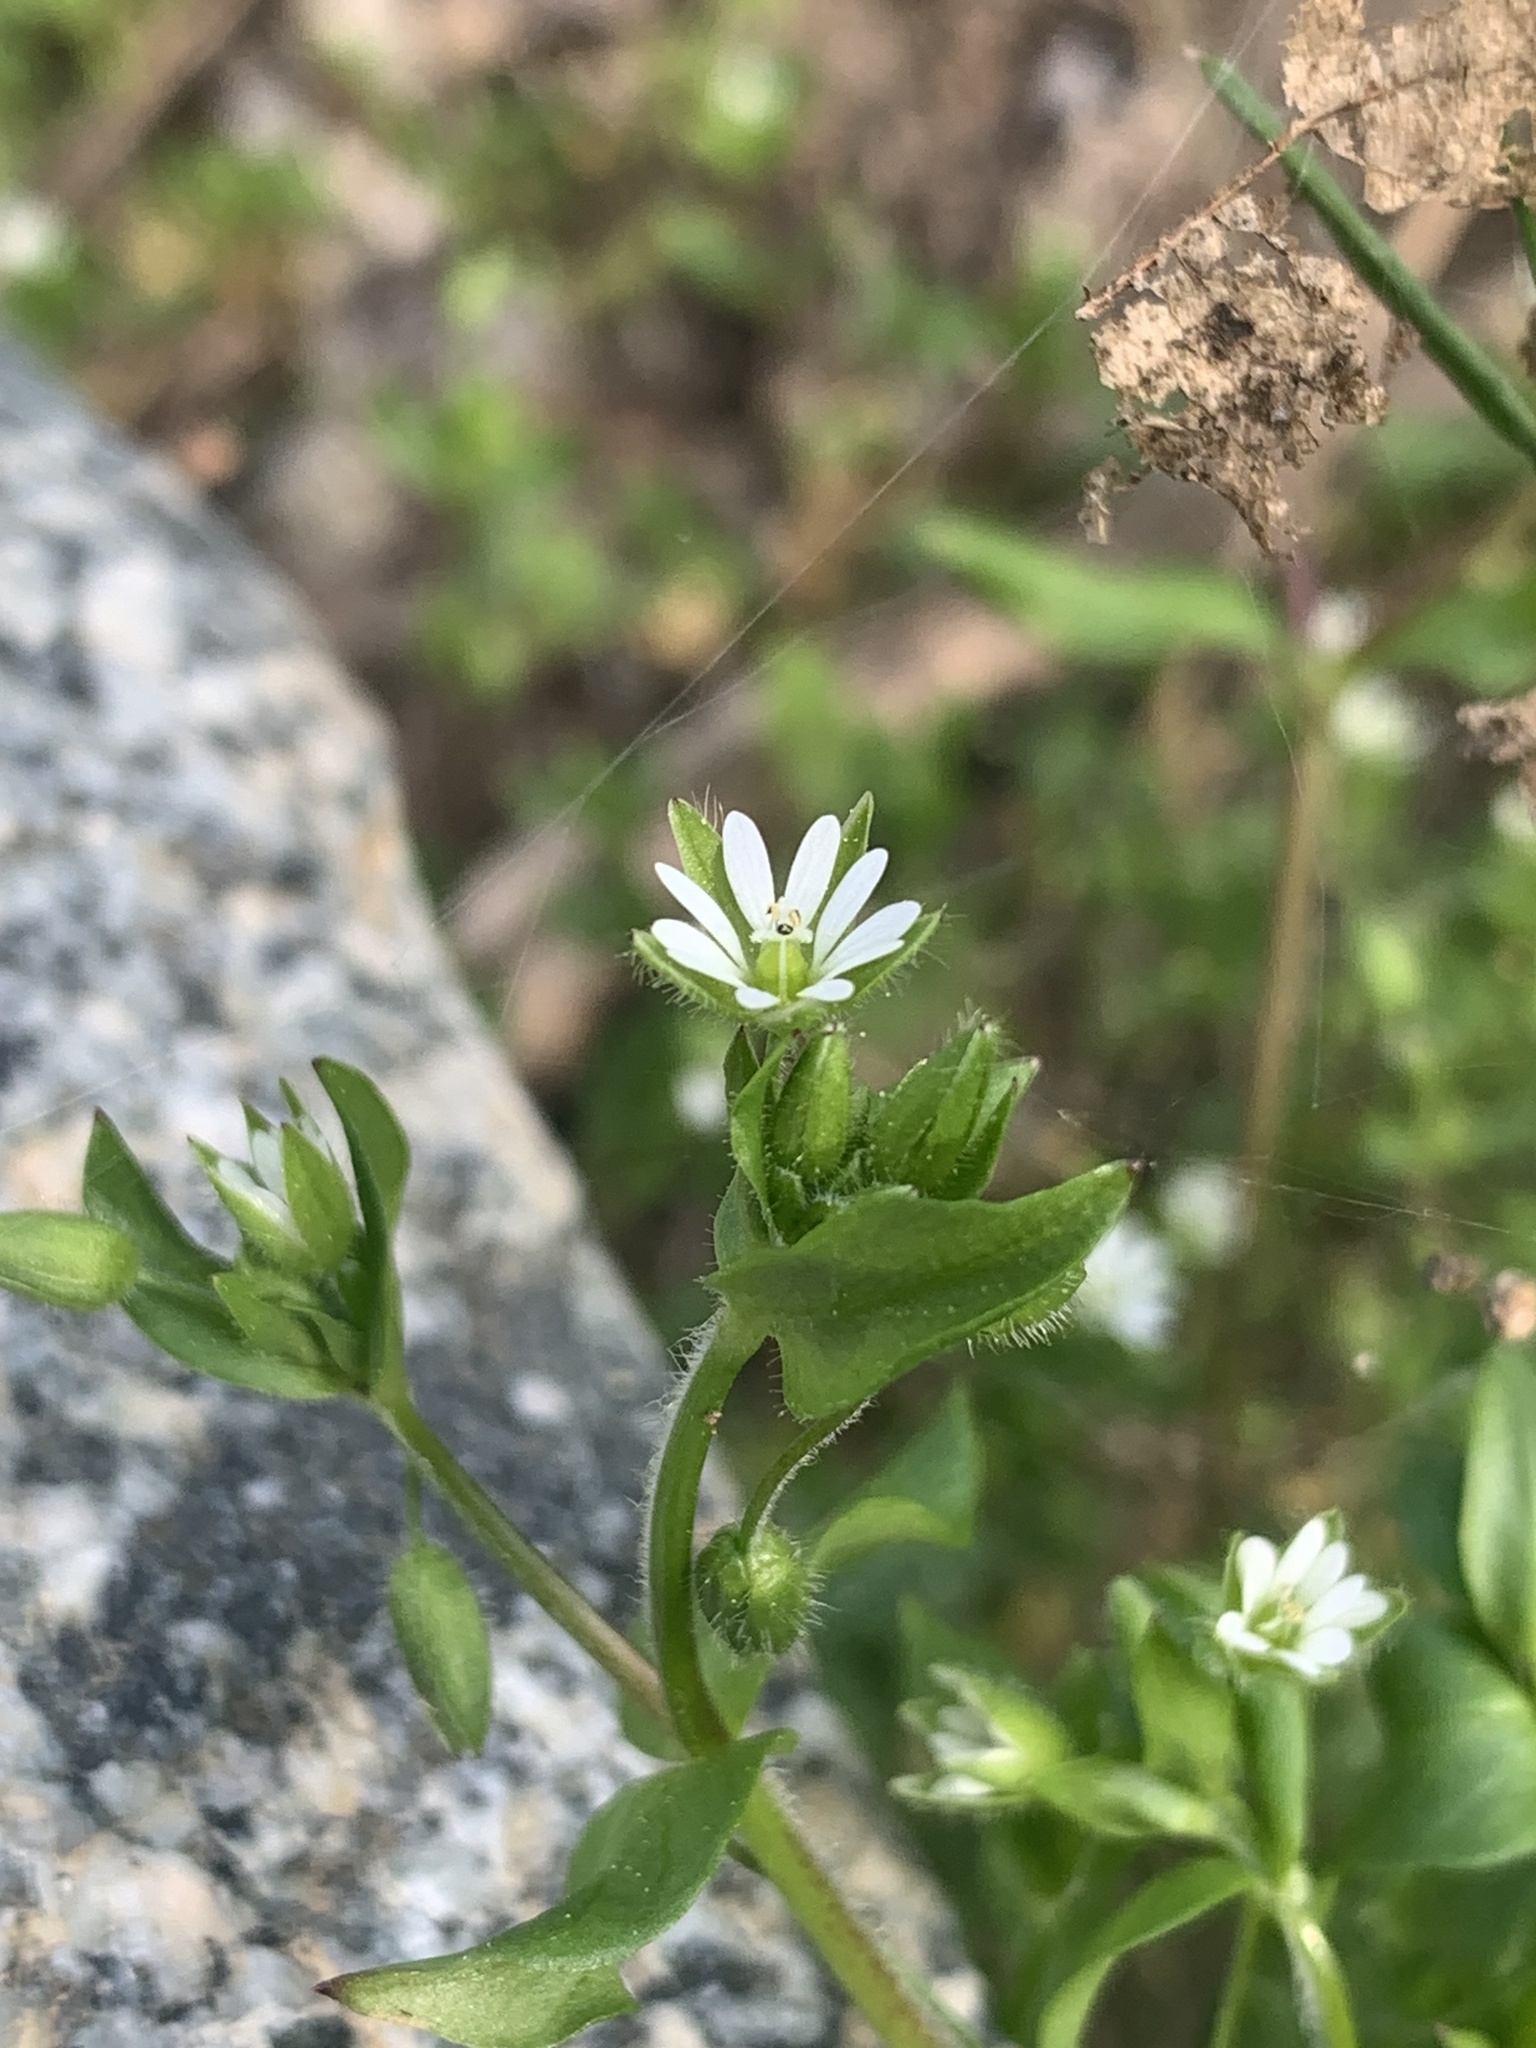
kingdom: Plantae
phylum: Tracheophyta
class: Magnoliopsida
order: Caryophyllales
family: Caryophyllaceae
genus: Stellaria
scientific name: Stellaria media
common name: Common chickweed
